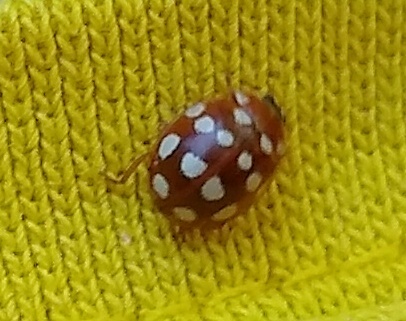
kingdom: Animalia
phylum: Arthropoda
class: Insecta
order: Coleoptera
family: Coccinellidae
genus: Calvia
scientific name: Calvia quatuordecimguttata
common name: Cream-spot ladybird
